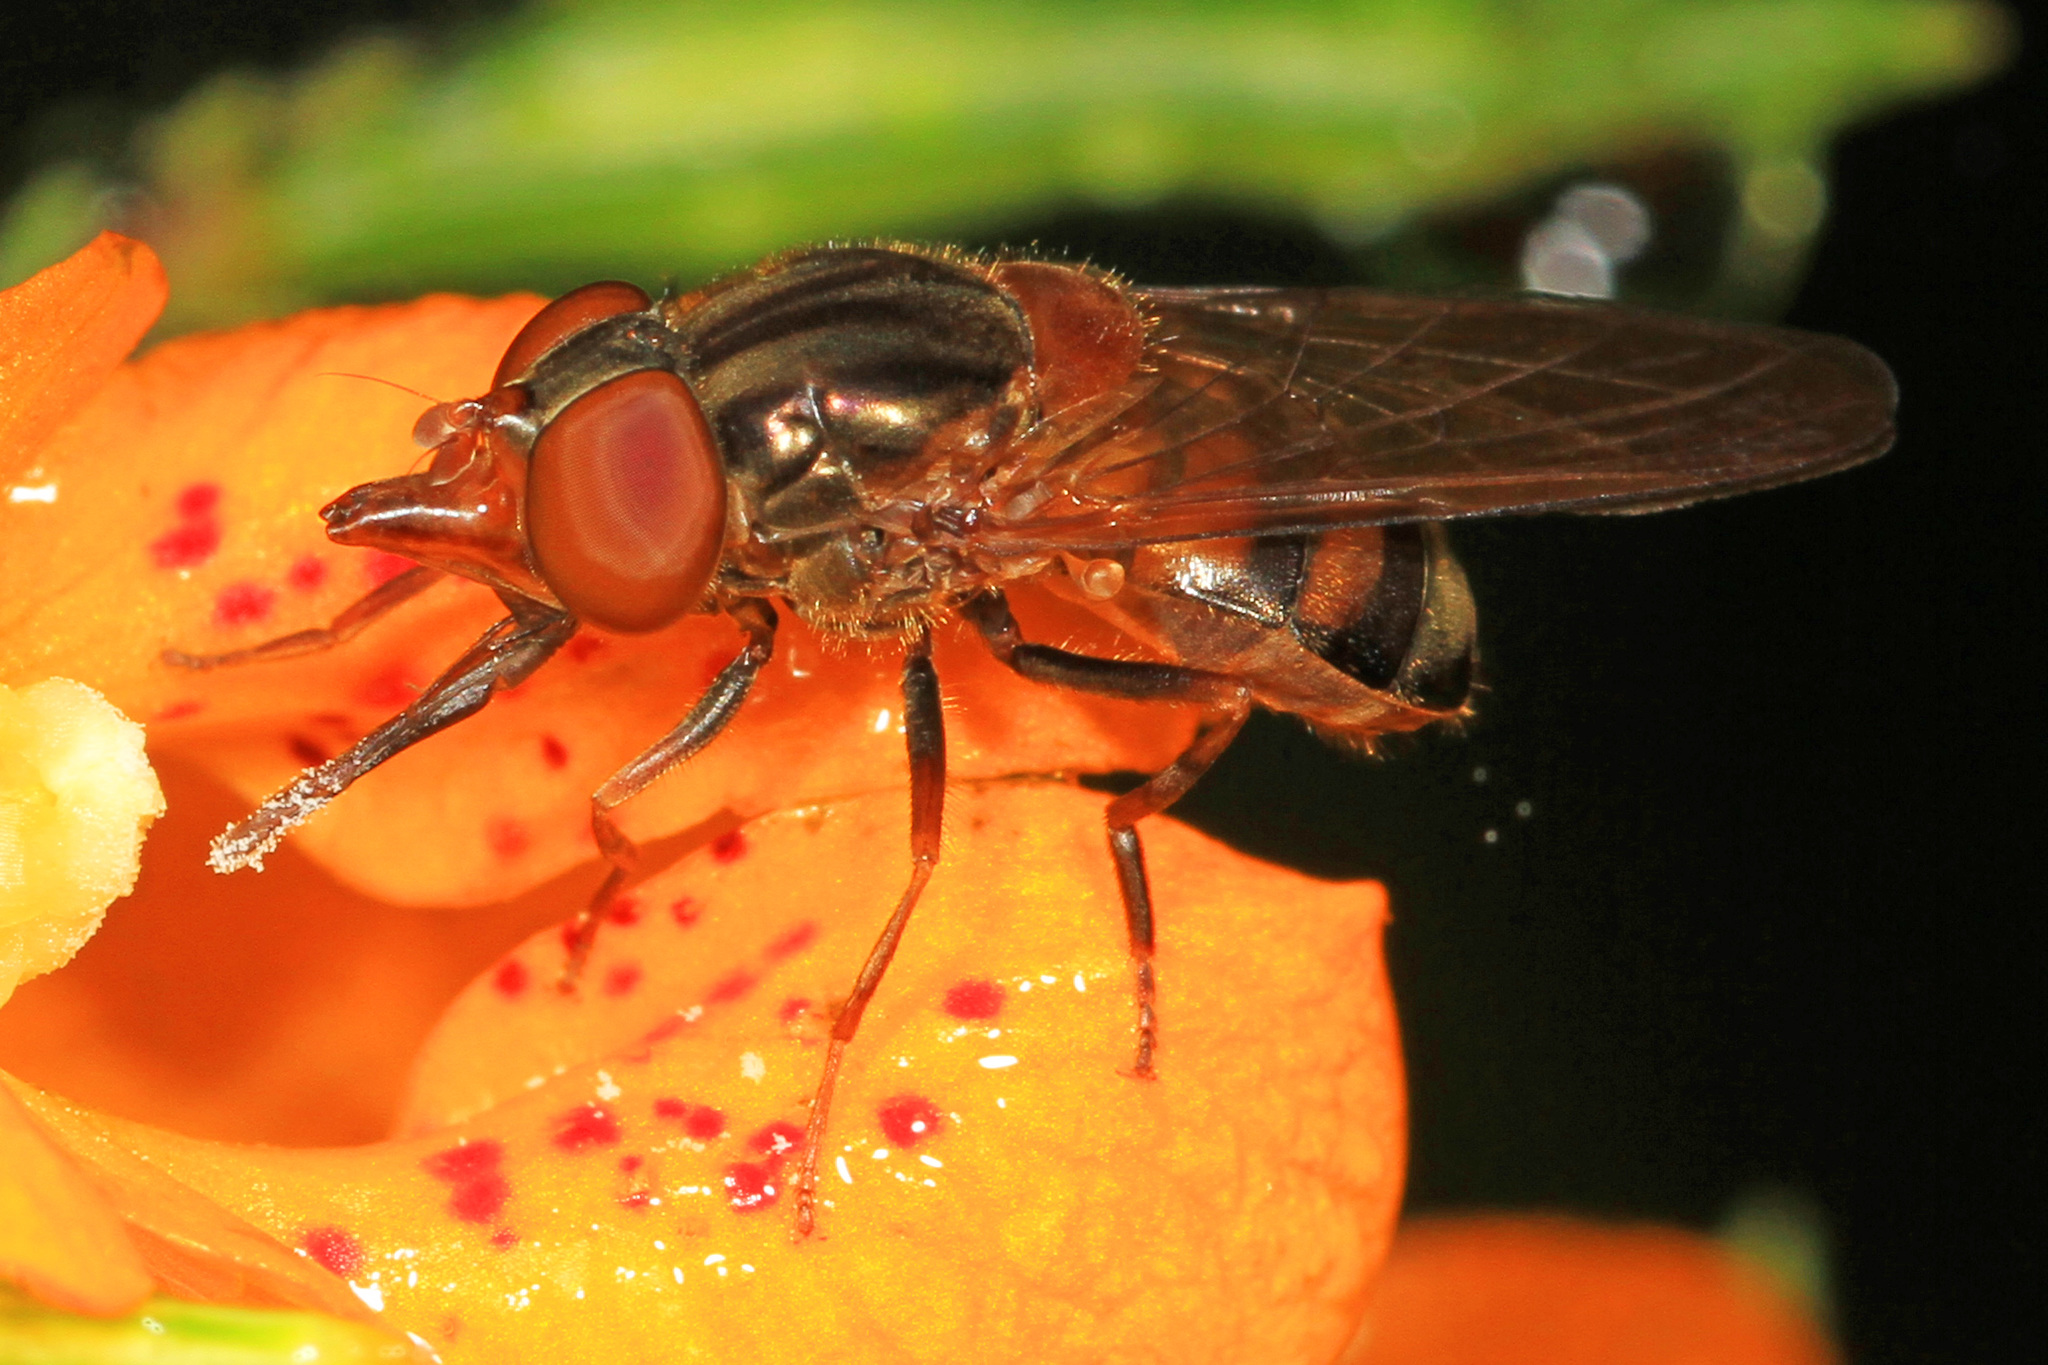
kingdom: Animalia
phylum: Arthropoda
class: Insecta
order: Diptera
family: Syrphidae
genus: Rhingia
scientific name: Rhingia nasica
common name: American snout fly
